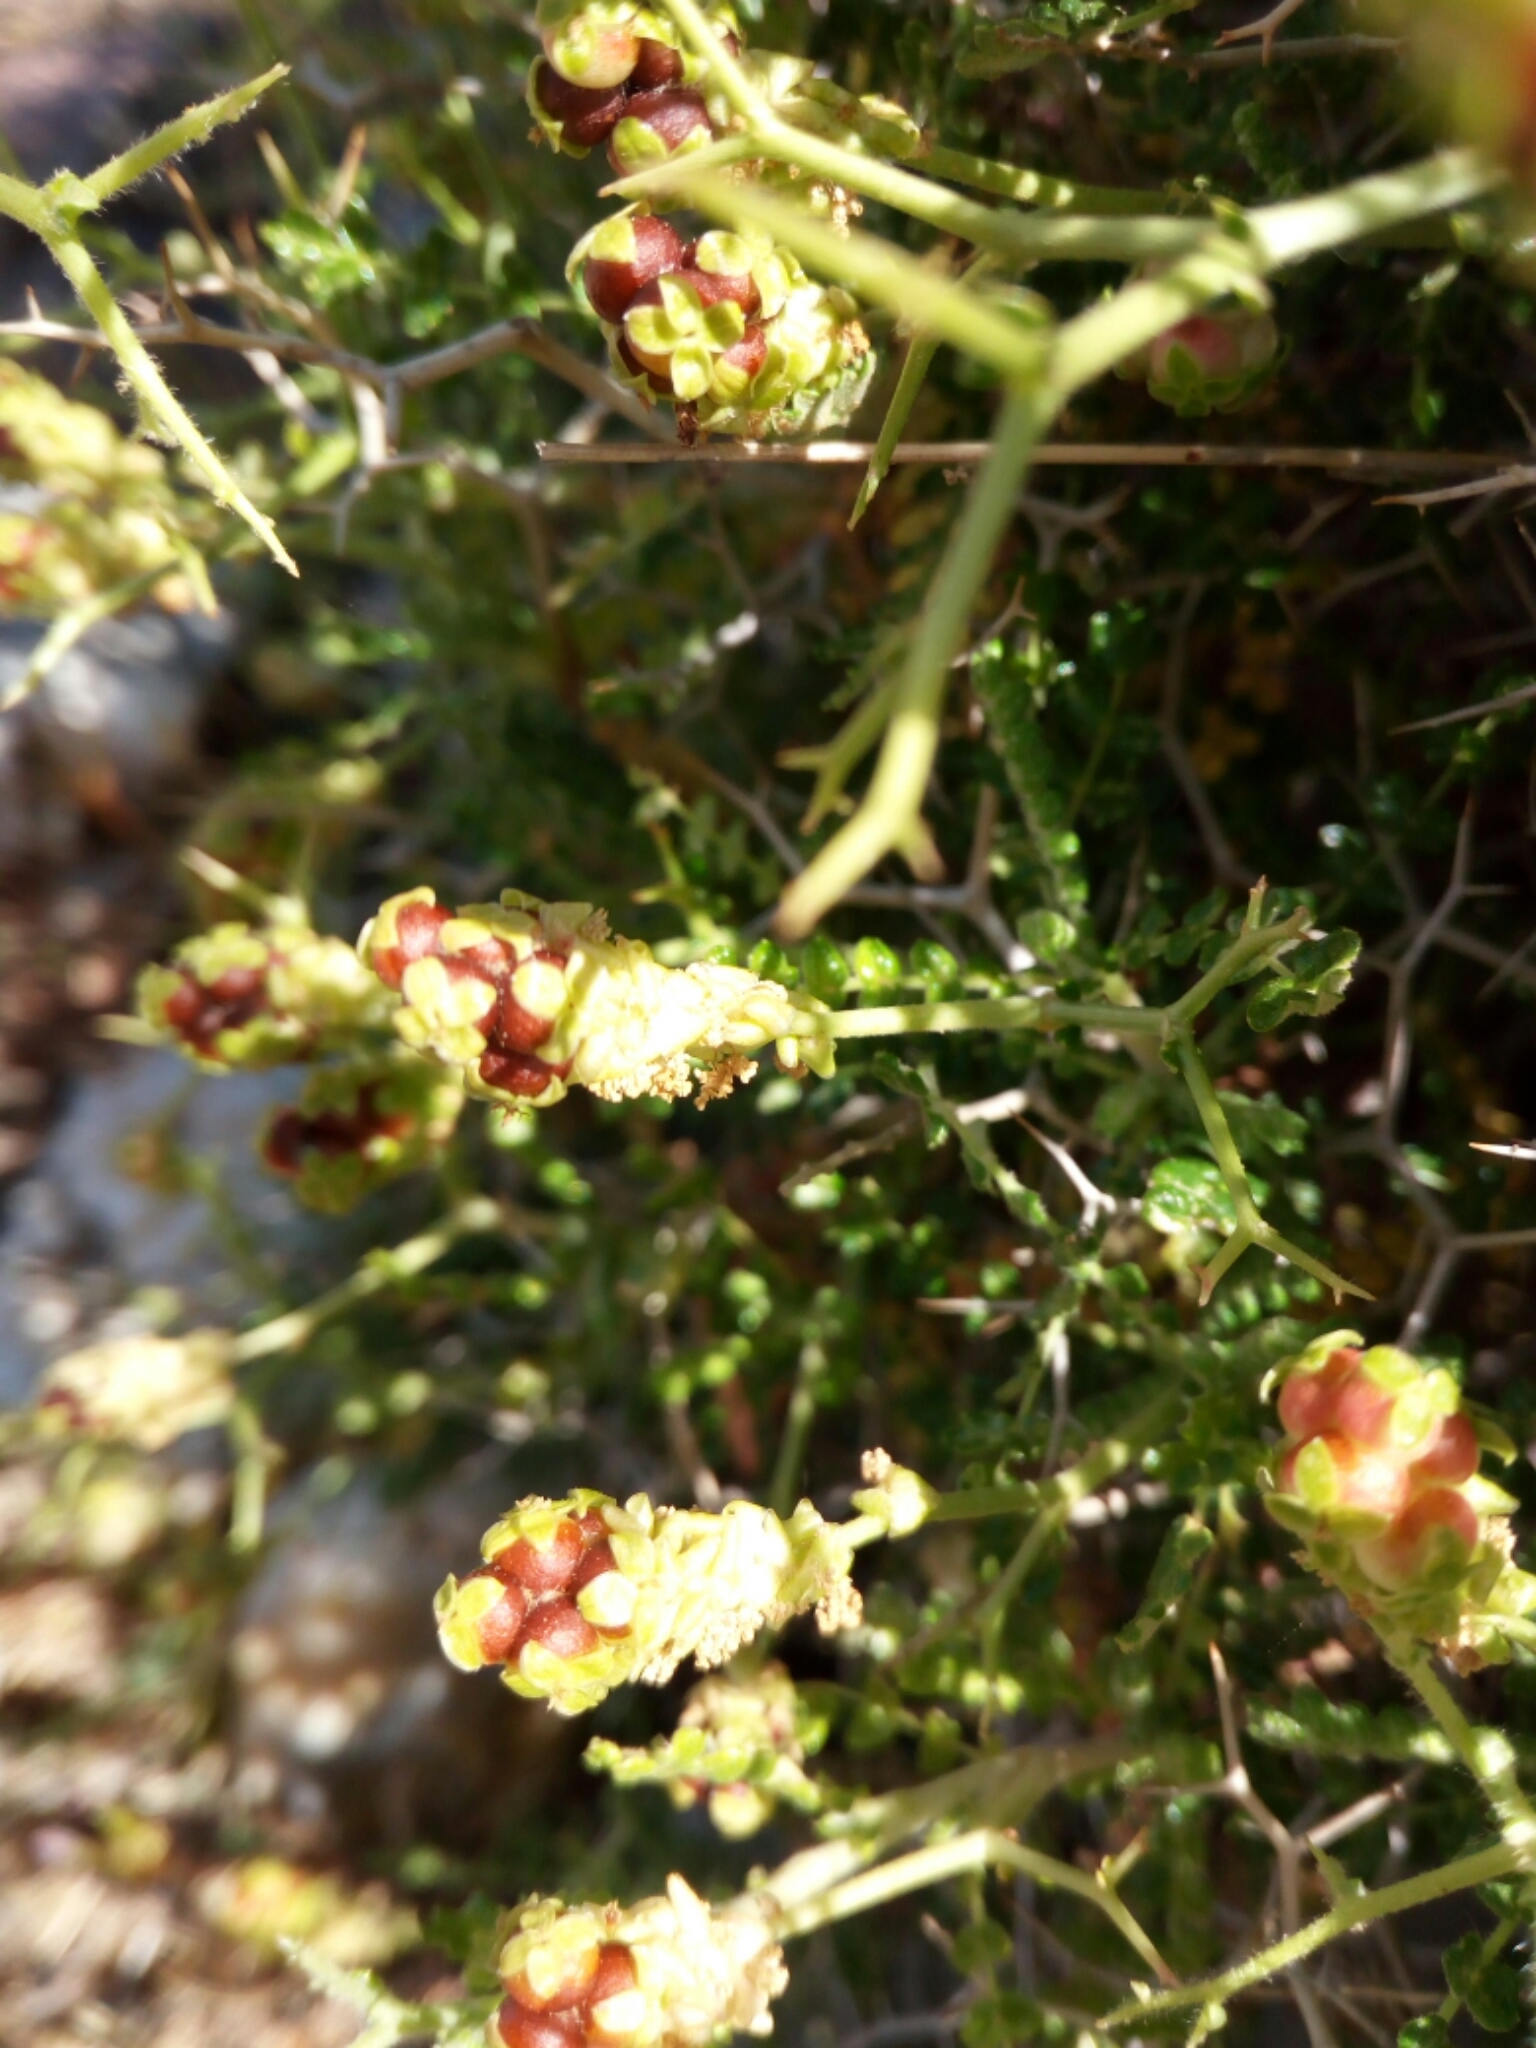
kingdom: Plantae
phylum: Tracheophyta
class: Magnoliopsida
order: Rosales
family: Rosaceae
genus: Sarcopoterium
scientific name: Sarcopoterium spinosum
